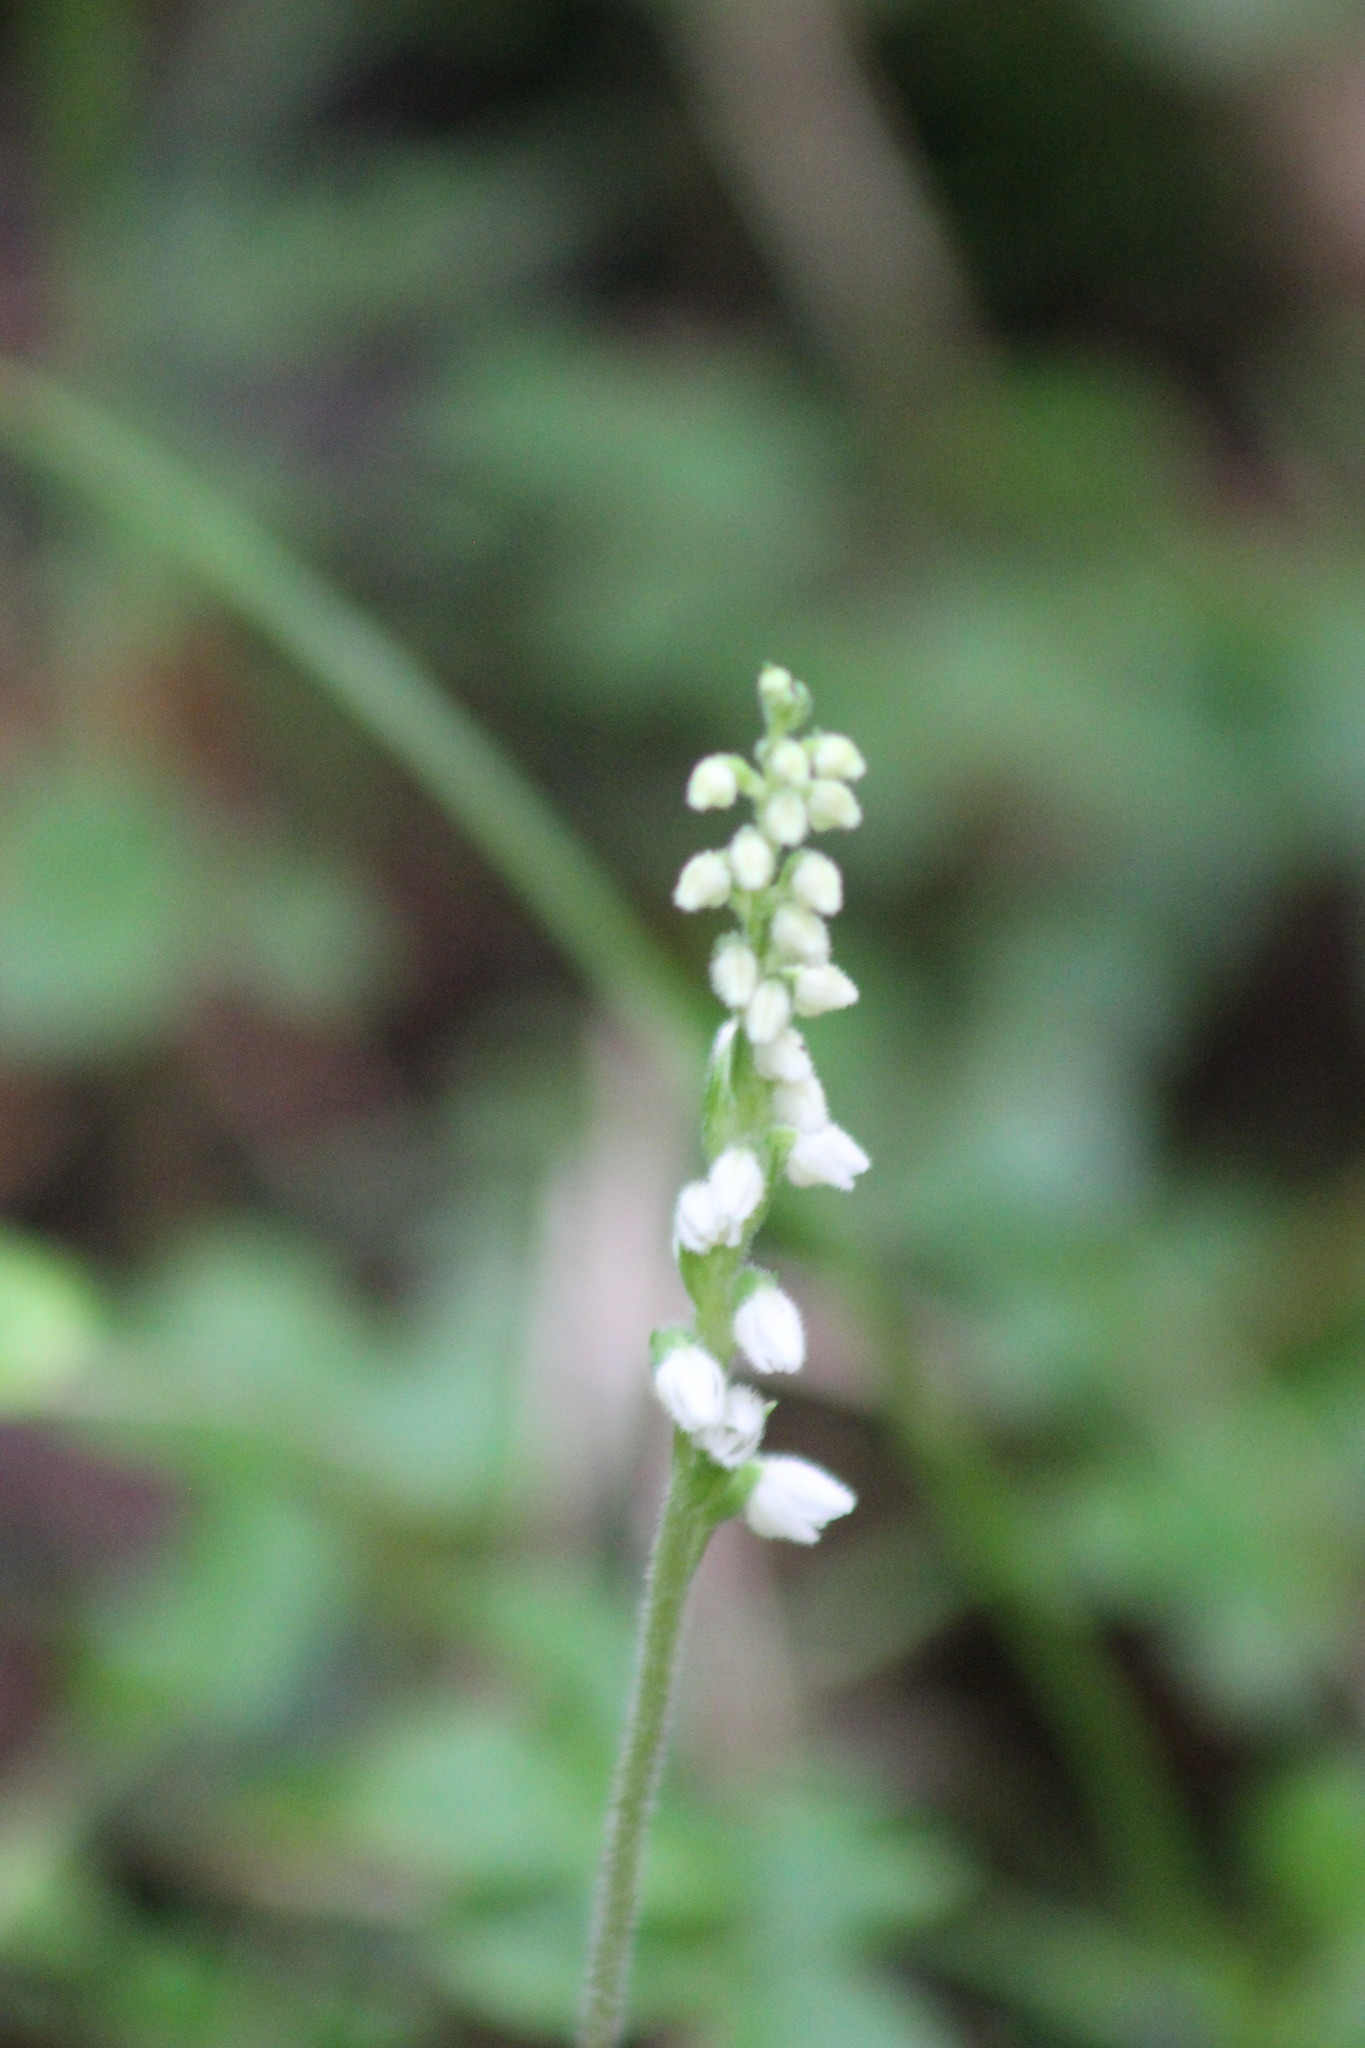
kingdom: Plantae
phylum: Tracheophyta
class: Liliopsida
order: Asparagales
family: Orchidaceae
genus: Goodyera
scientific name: Goodyera repens
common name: Creeping lady's-tresses
